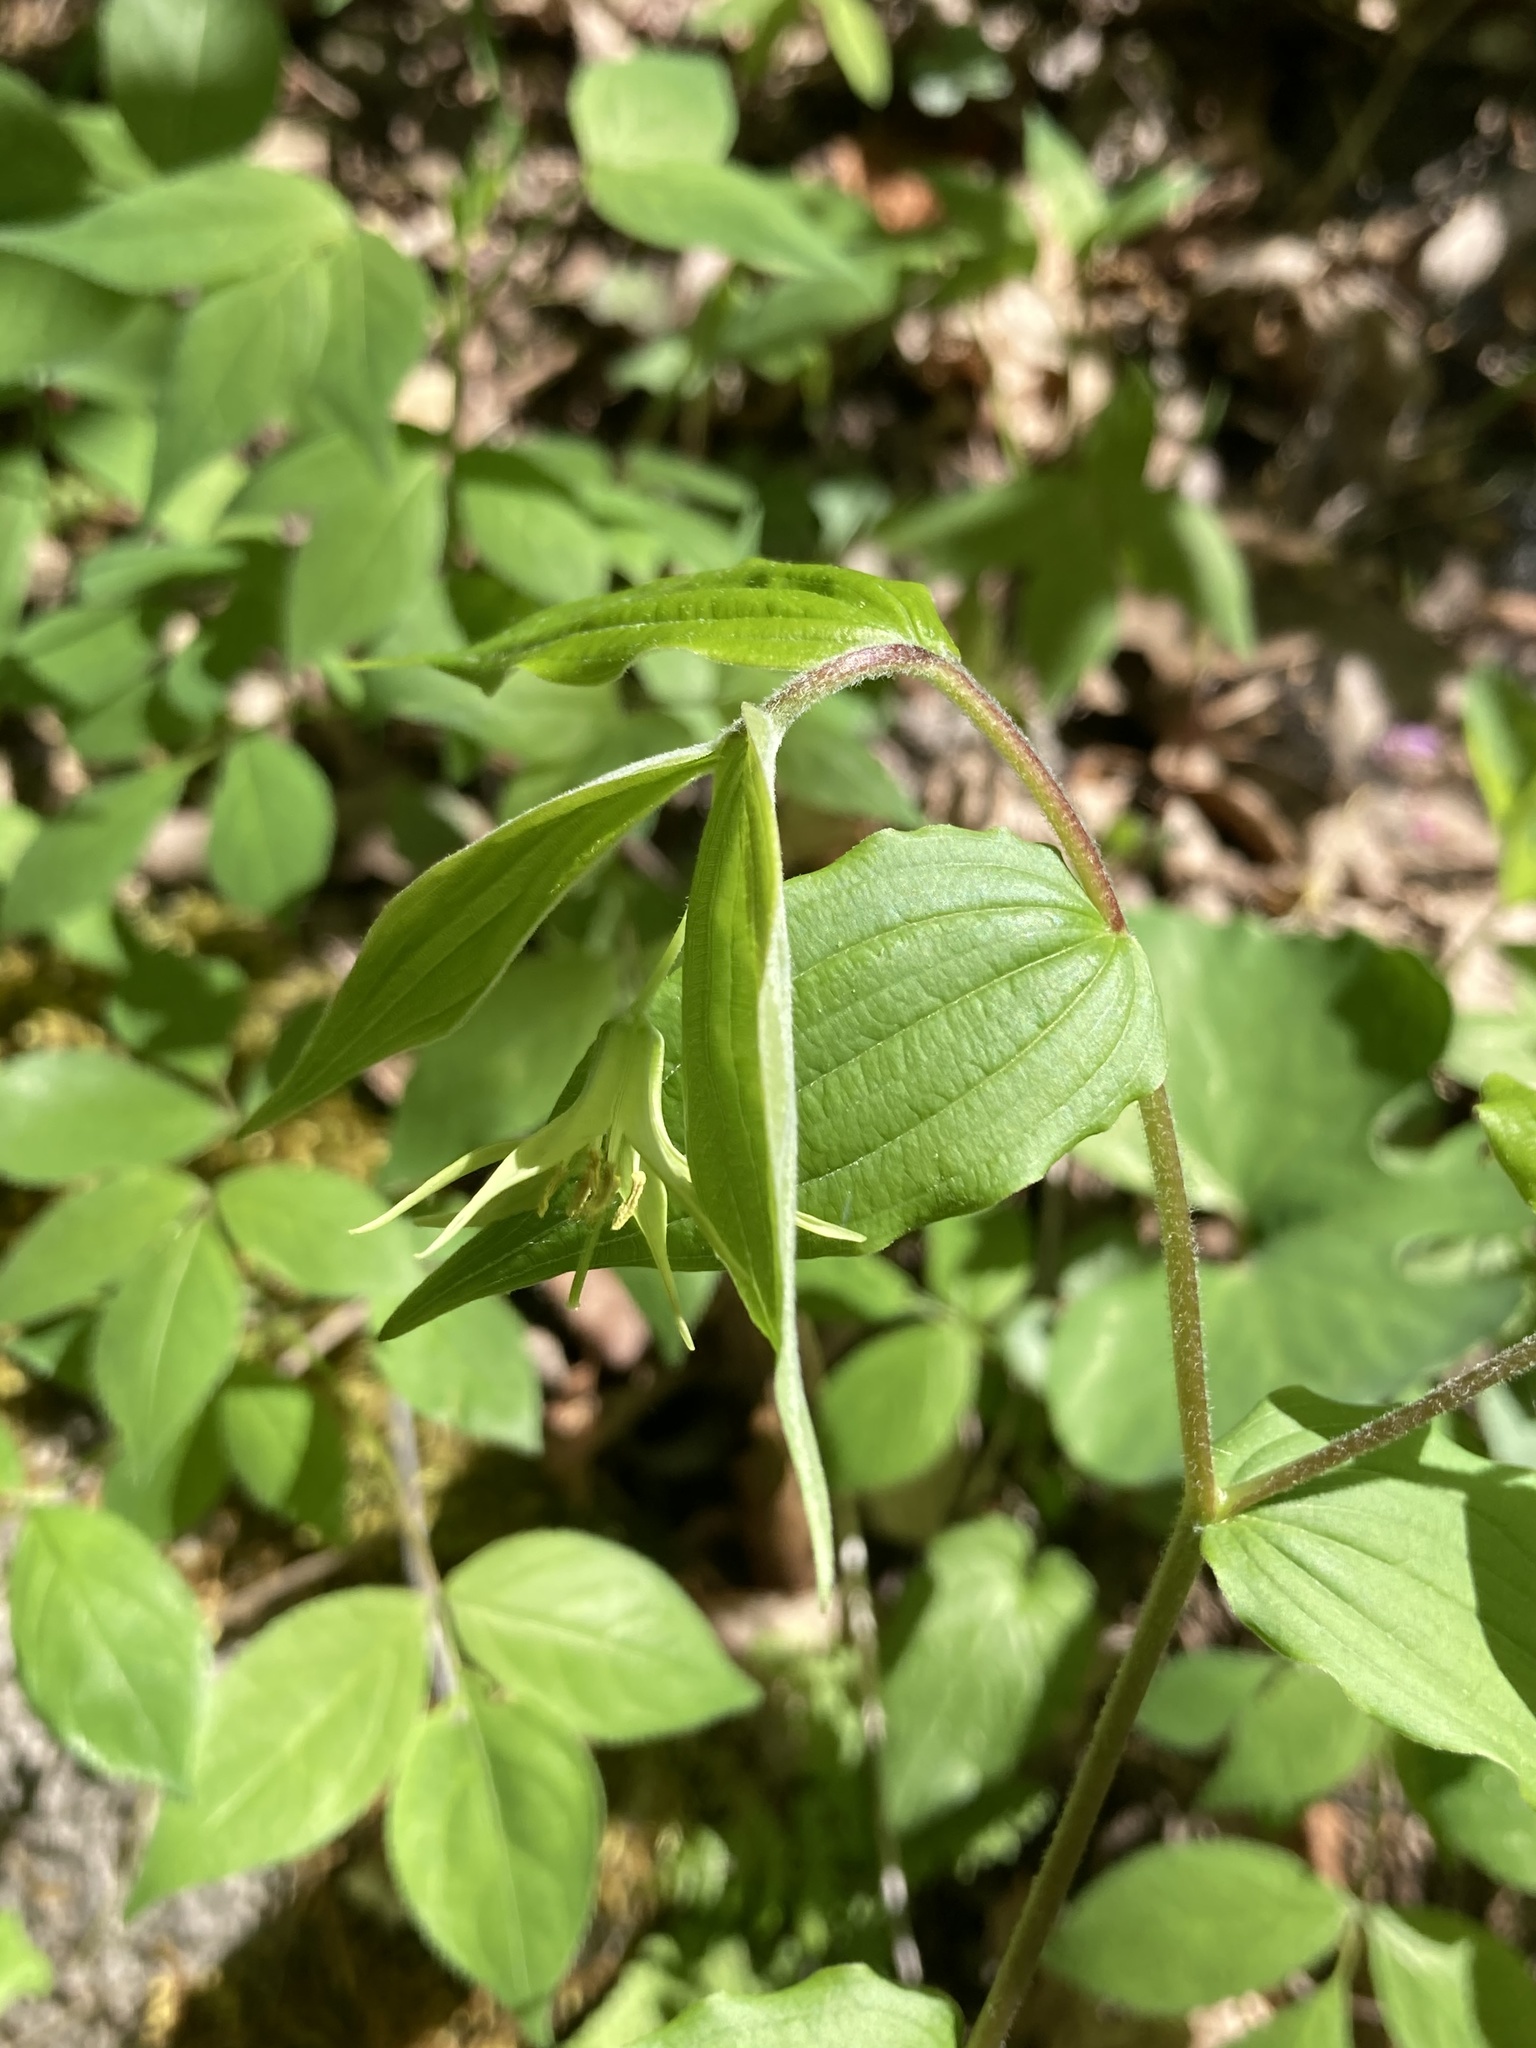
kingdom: Plantae
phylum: Tracheophyta
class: Liliopsida
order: Liliales
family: Liliaceae
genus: Prosartes
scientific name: Prosartes lanuginosa
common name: Hairy mandarin
